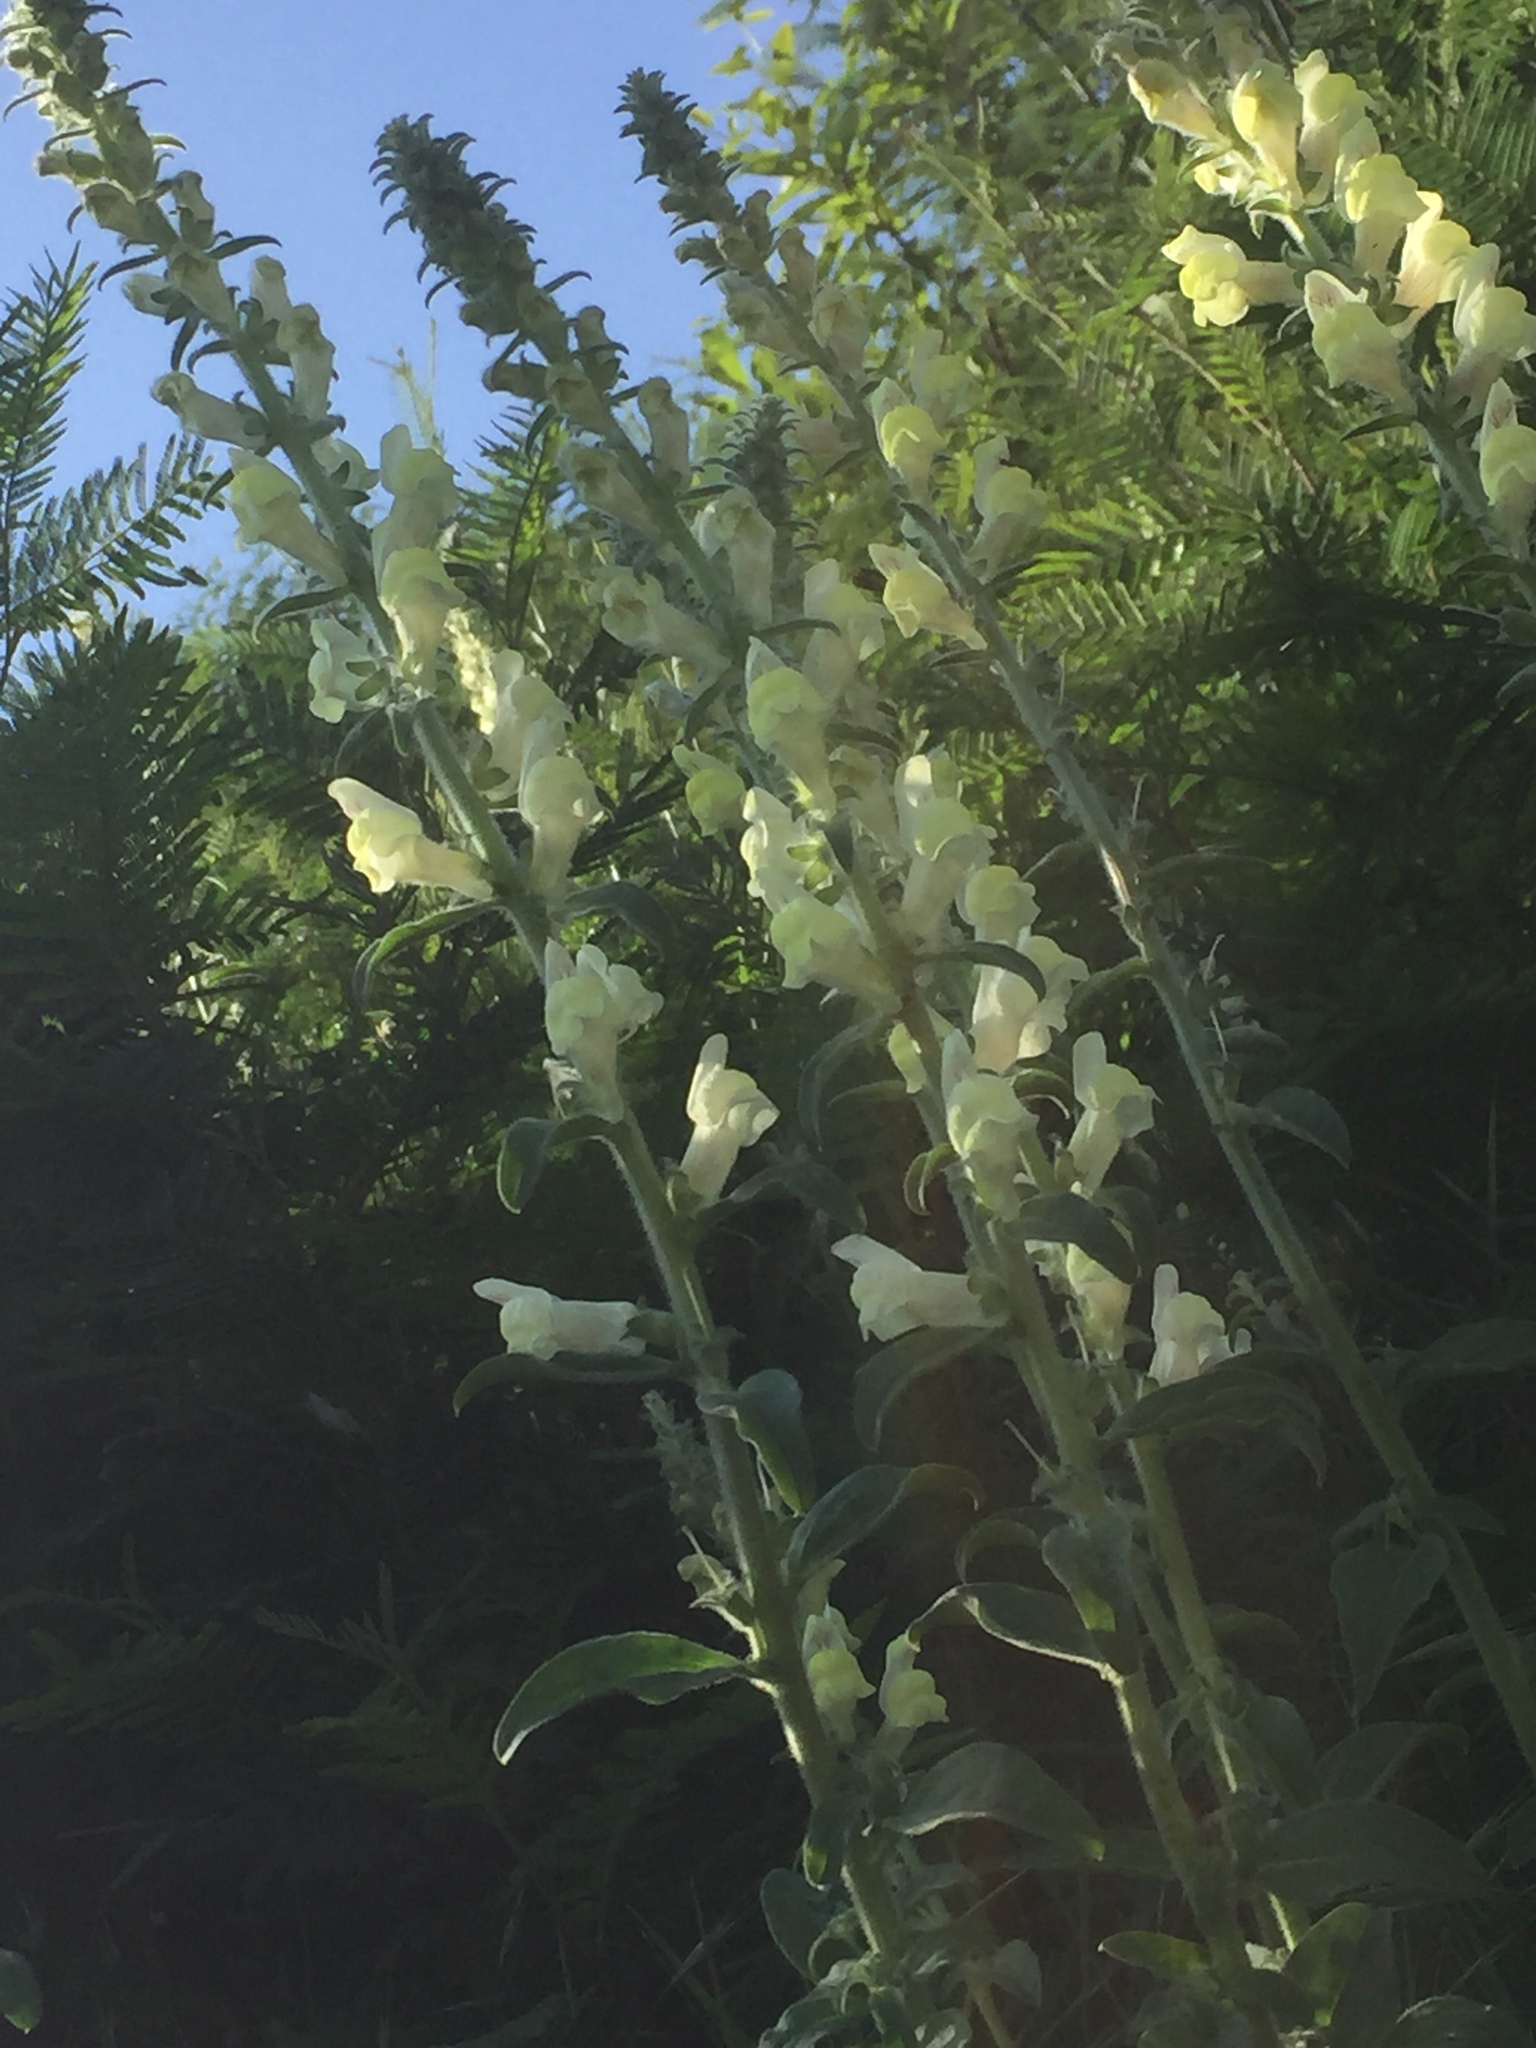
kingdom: Plantae
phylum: Tracheophyta
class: Magnoliopsida
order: Lamiales
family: Plantaginaceae
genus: Antirrhinum
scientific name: Antirrhinum meonanthum
